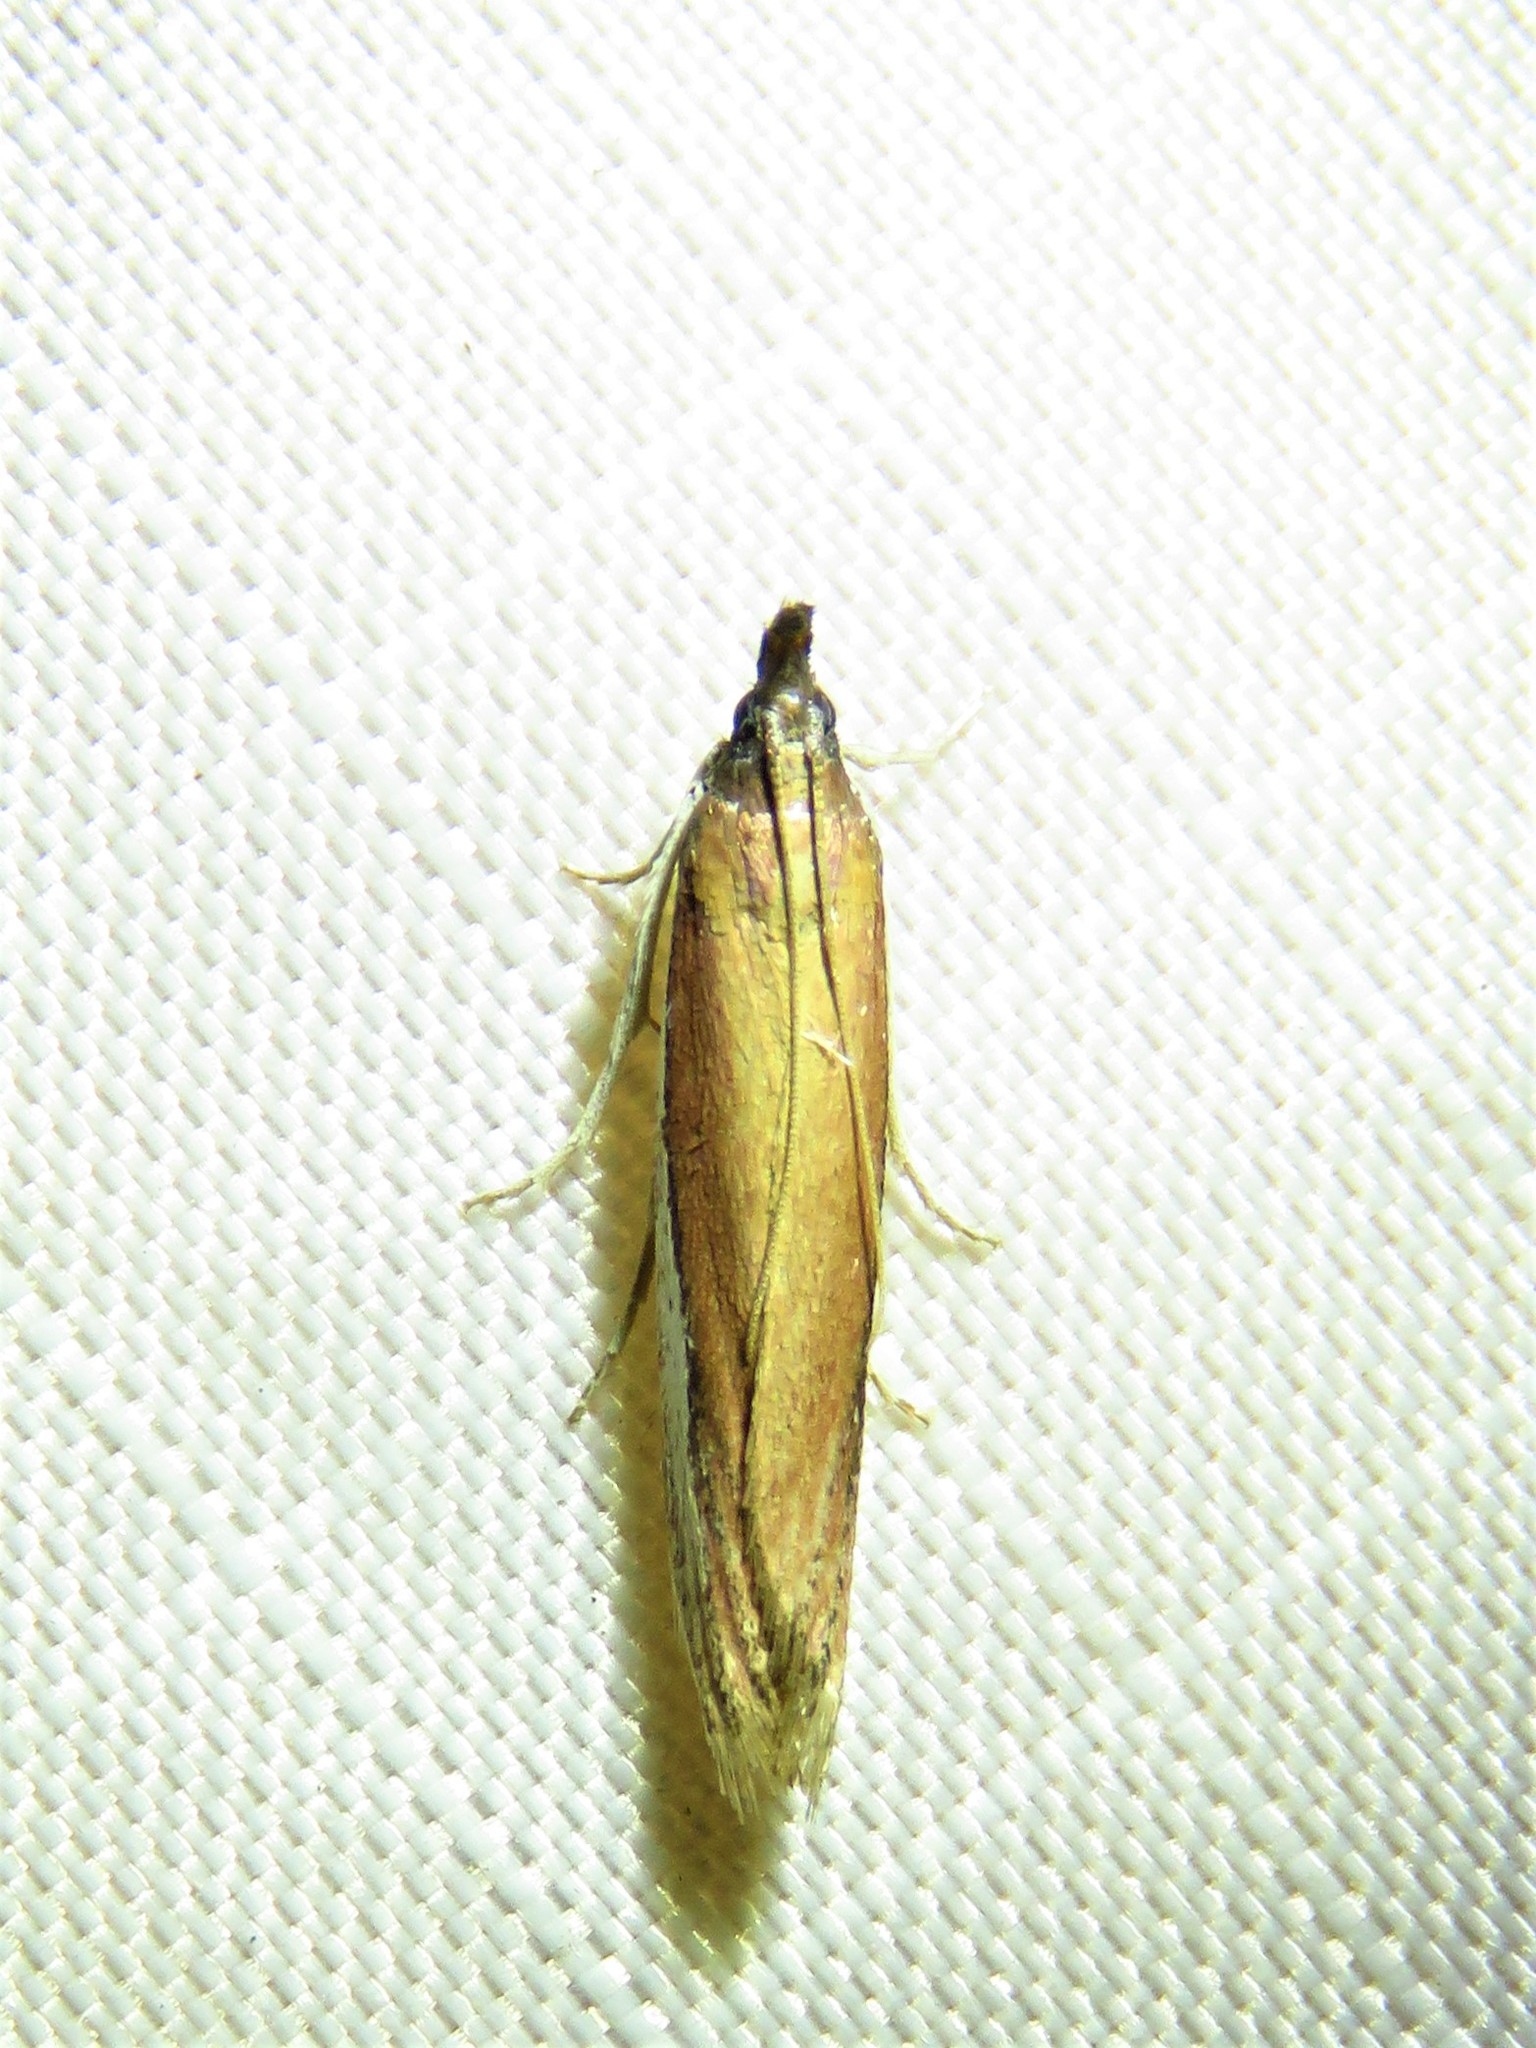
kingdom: Animalia
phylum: Arthropoda
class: Insecta
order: Lepidoptera
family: Pyralidae
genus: Tampa
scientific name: Tampa dimediatella
